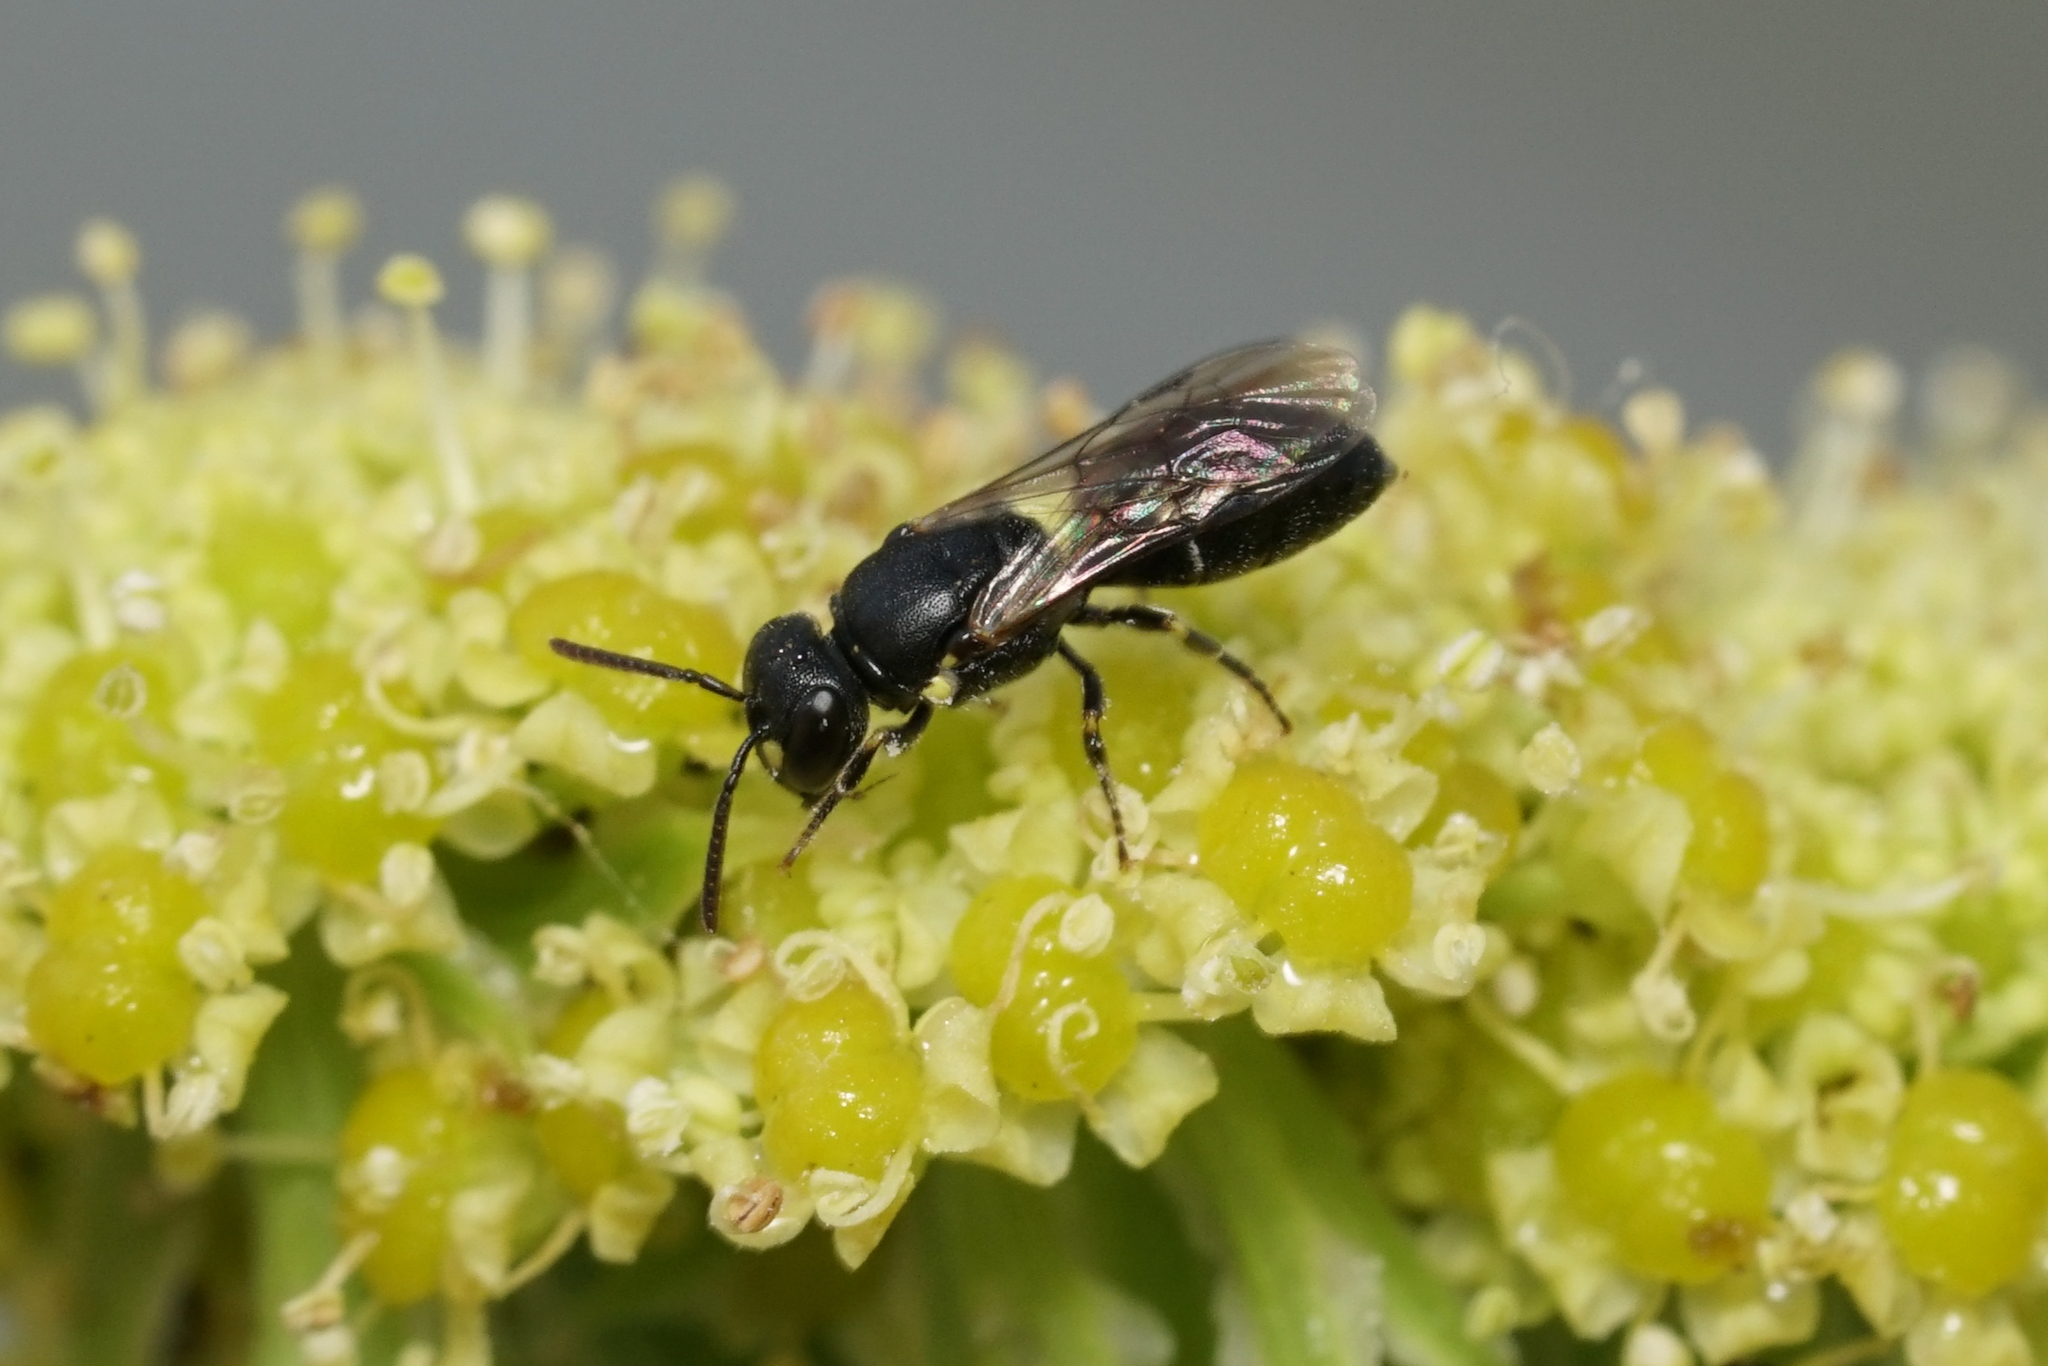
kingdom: Animalia
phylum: Arthropoda
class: Insecta
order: Hymenoptera
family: Colletidae
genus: Hylaeus
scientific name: Hylaeus pictipes
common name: Little yellow-face bee
